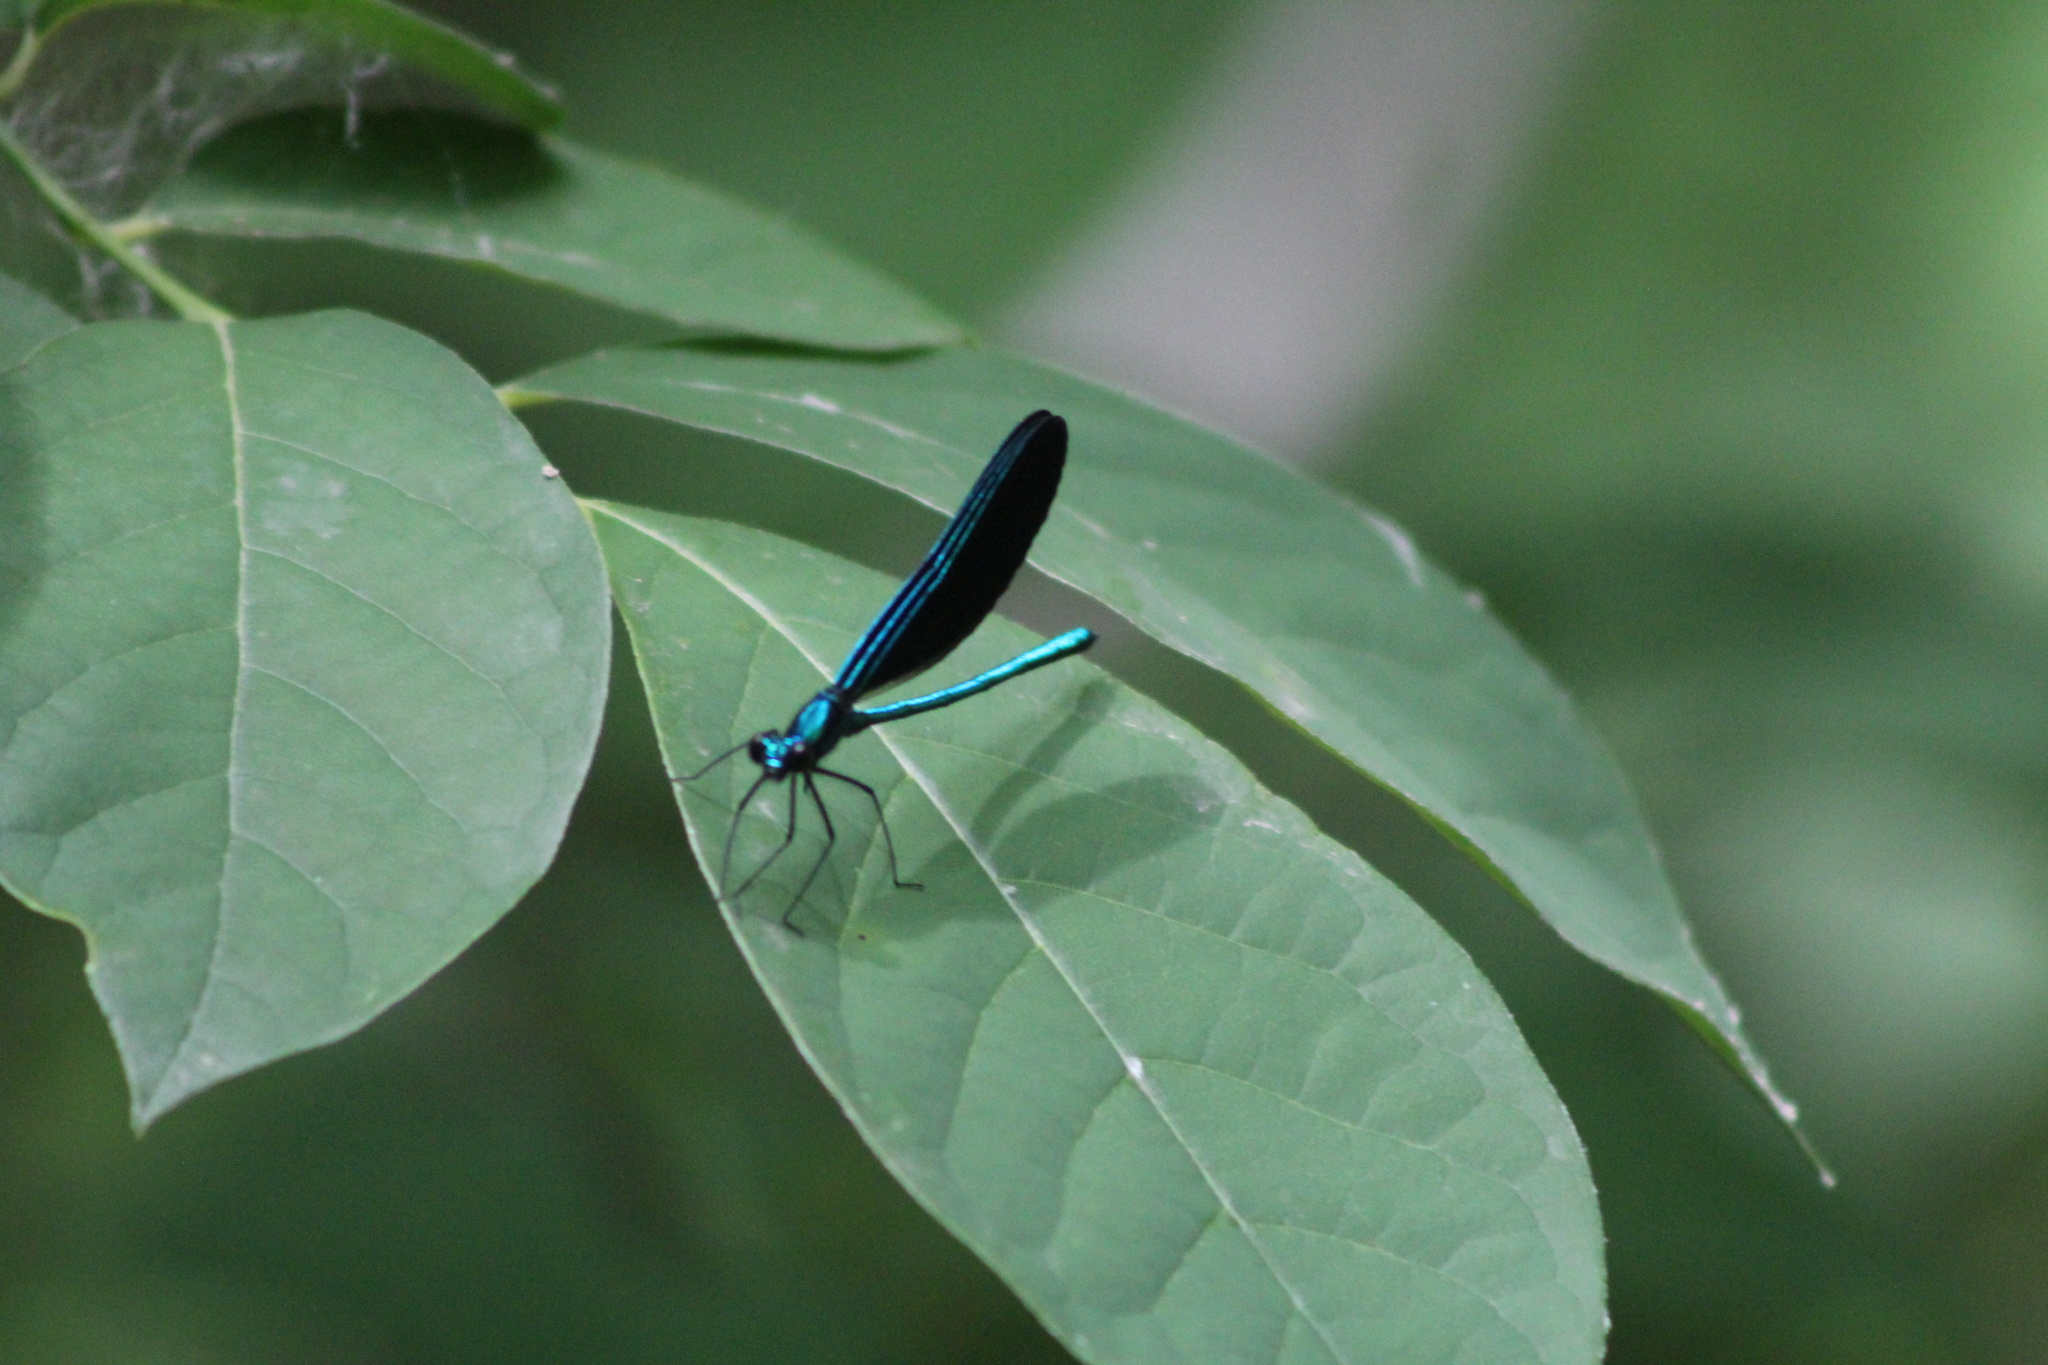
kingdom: Animalia
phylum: Arthropoda
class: Insecta
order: Odonata
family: Calopterygidae
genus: Calopteryx
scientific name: Calopteryx maculata
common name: Ebony jewelwing
